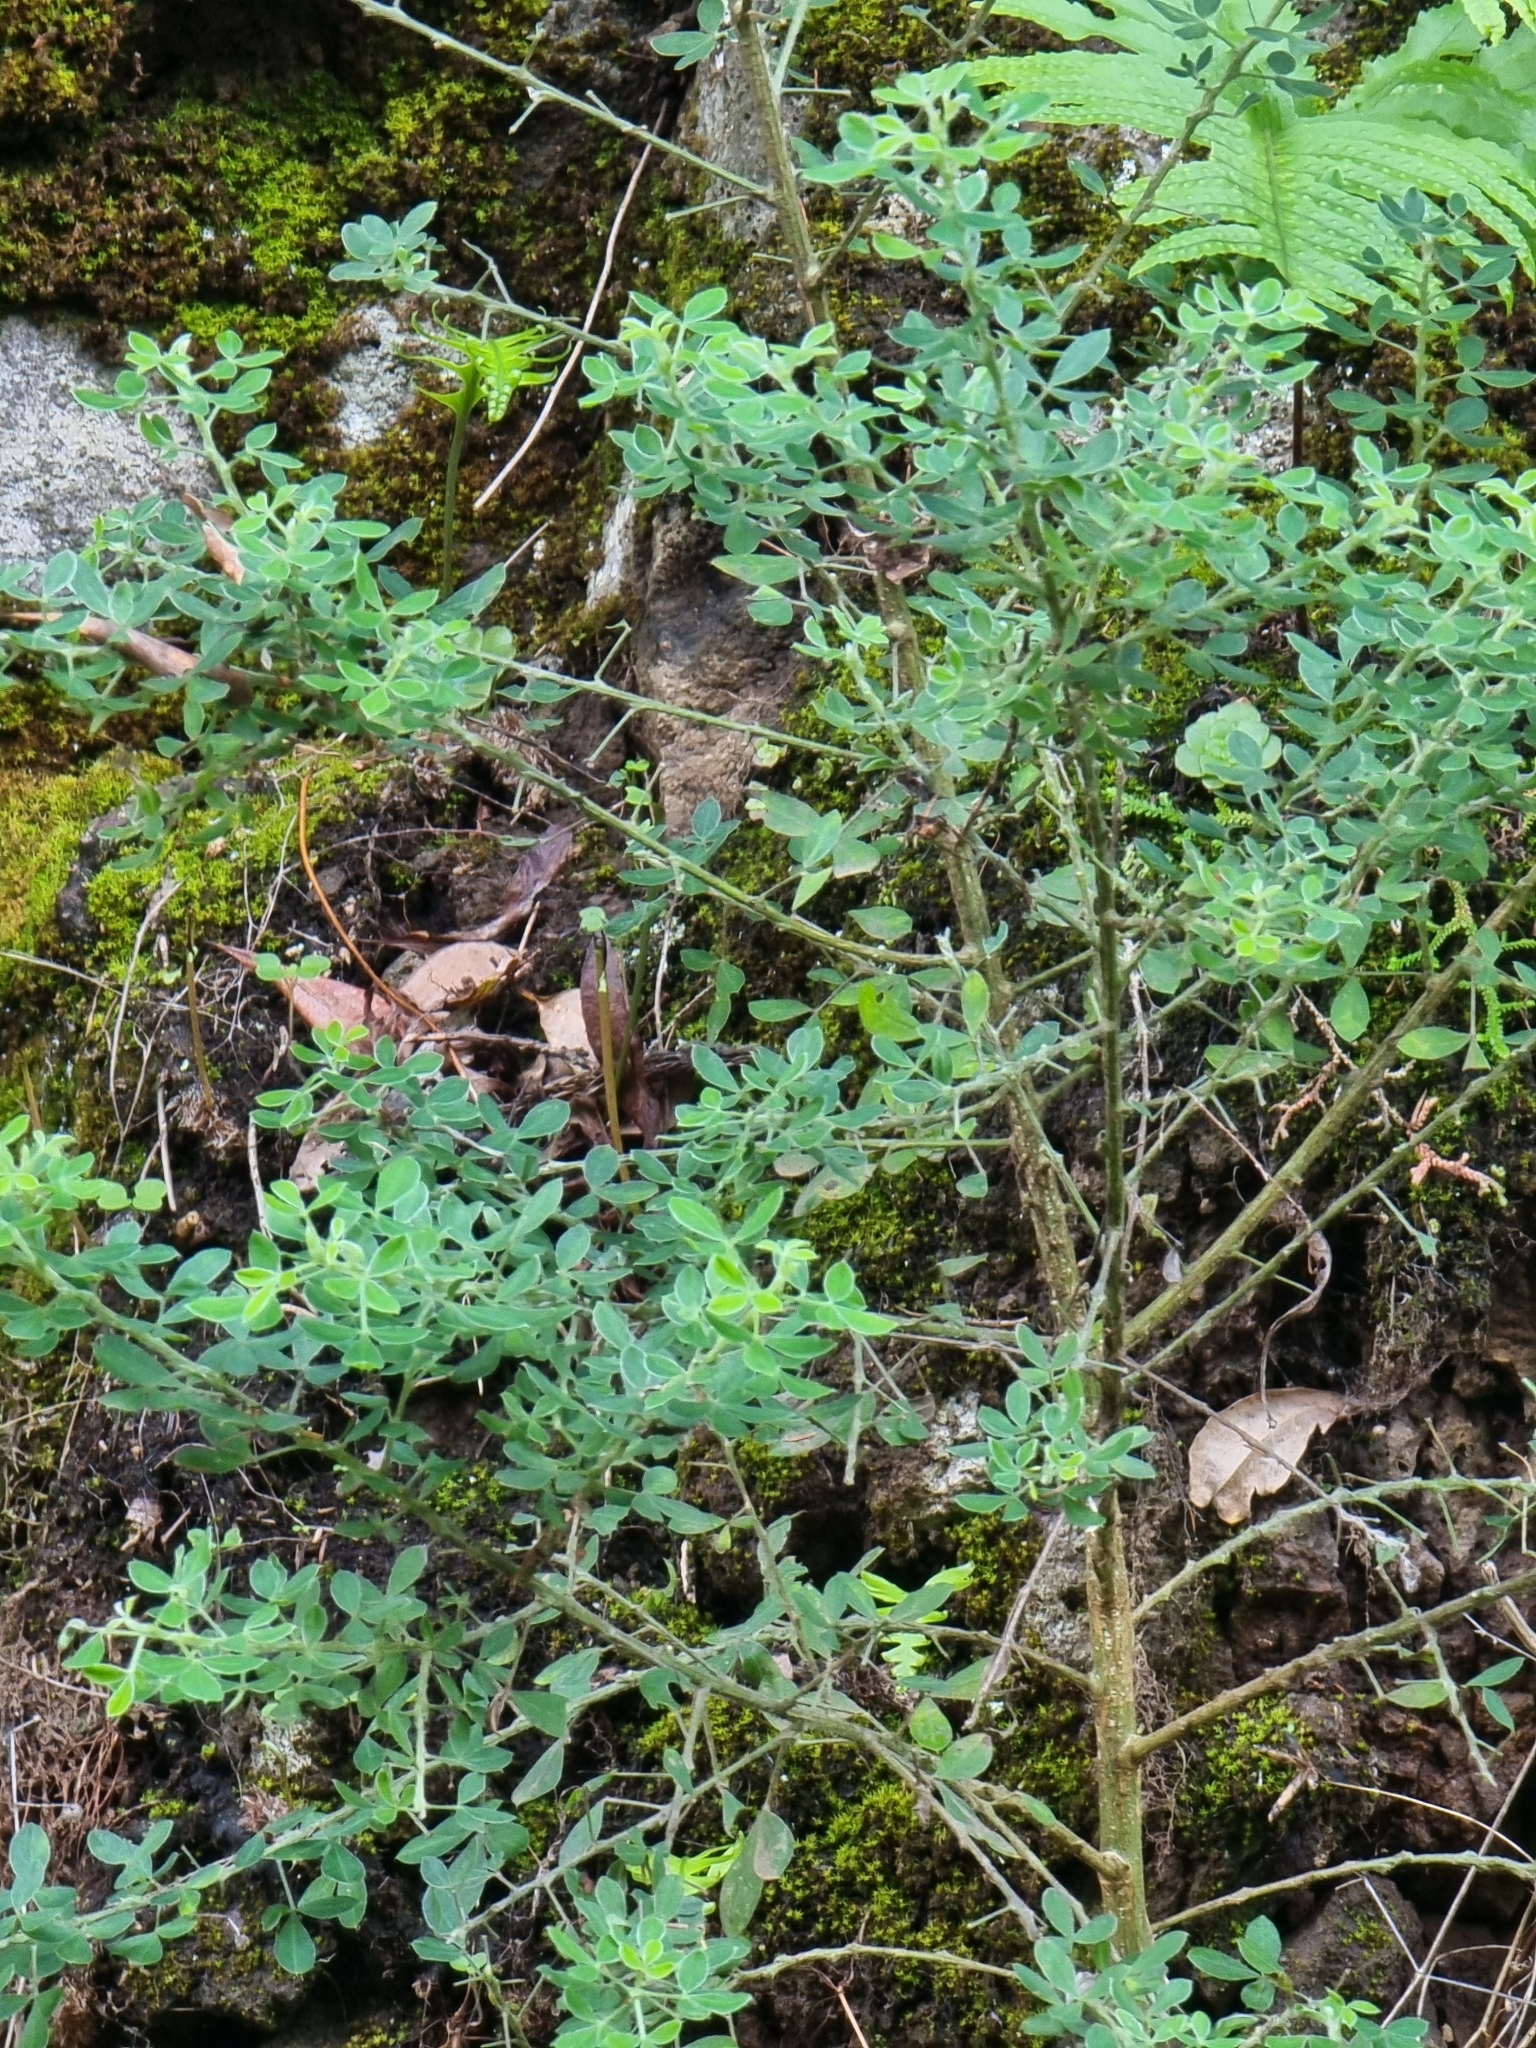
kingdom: Plantae
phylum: Tracheophyta
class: Magnoliopsida
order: Fabales
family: Fabaceae
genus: Genista
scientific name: Genista maderensis
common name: Madeira dyer's greenweed
